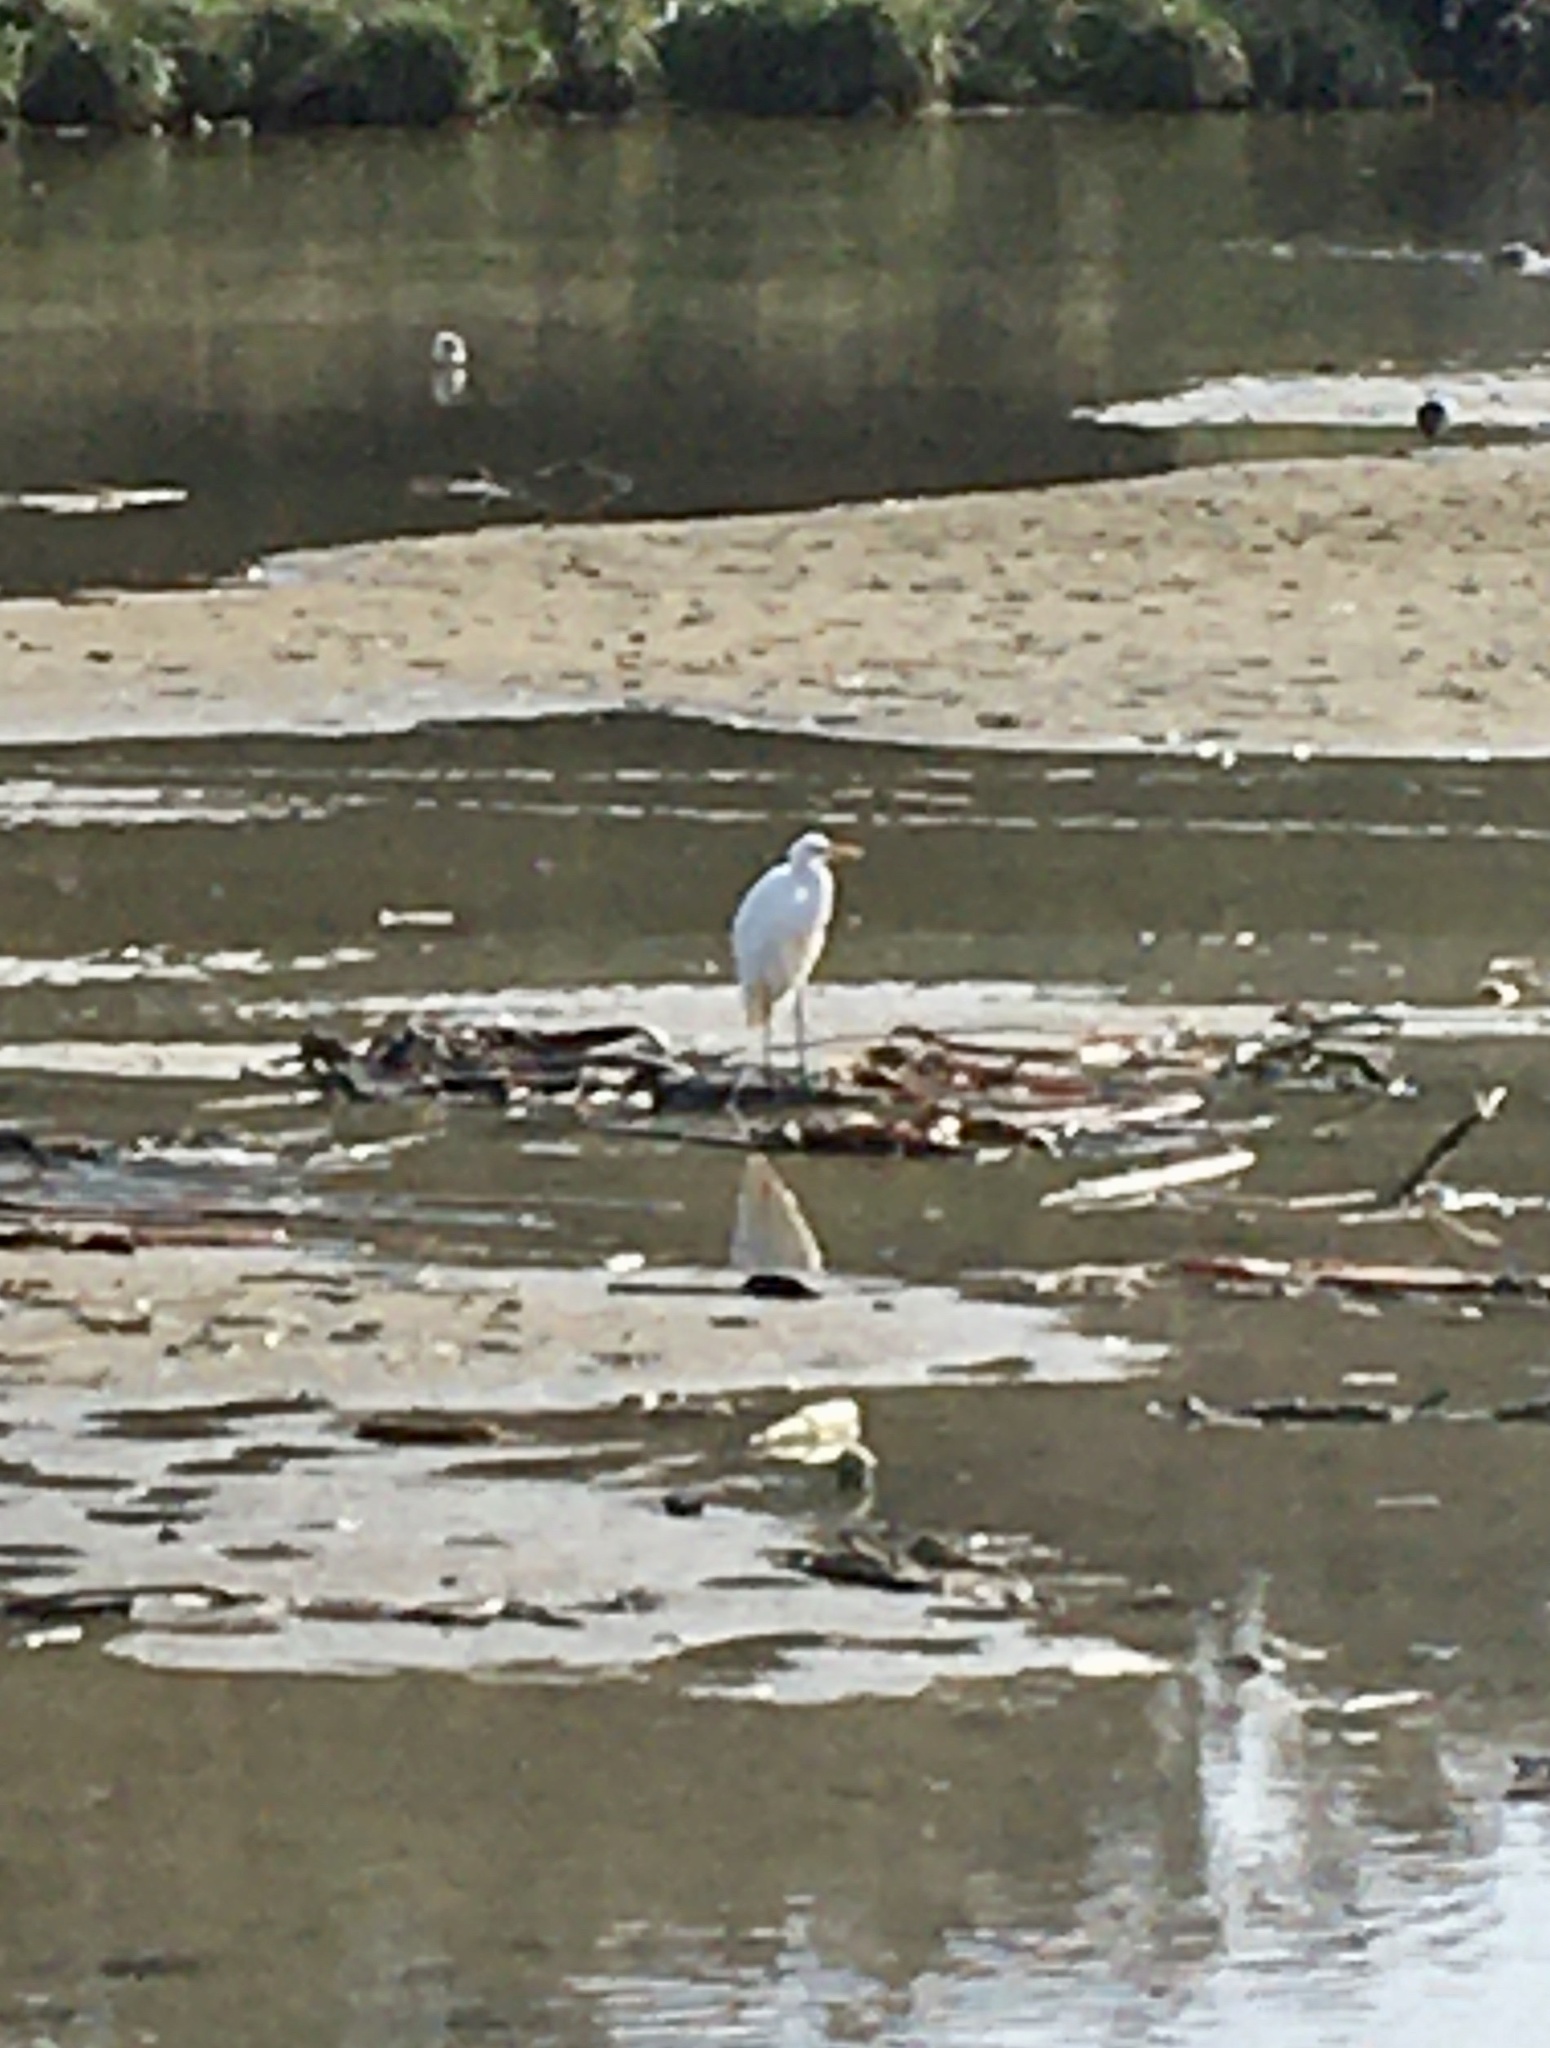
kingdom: Animalia
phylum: Chordata
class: Aves
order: Pelecaniformes
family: Ardeidae
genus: Ardea
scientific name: Ardea modesta
